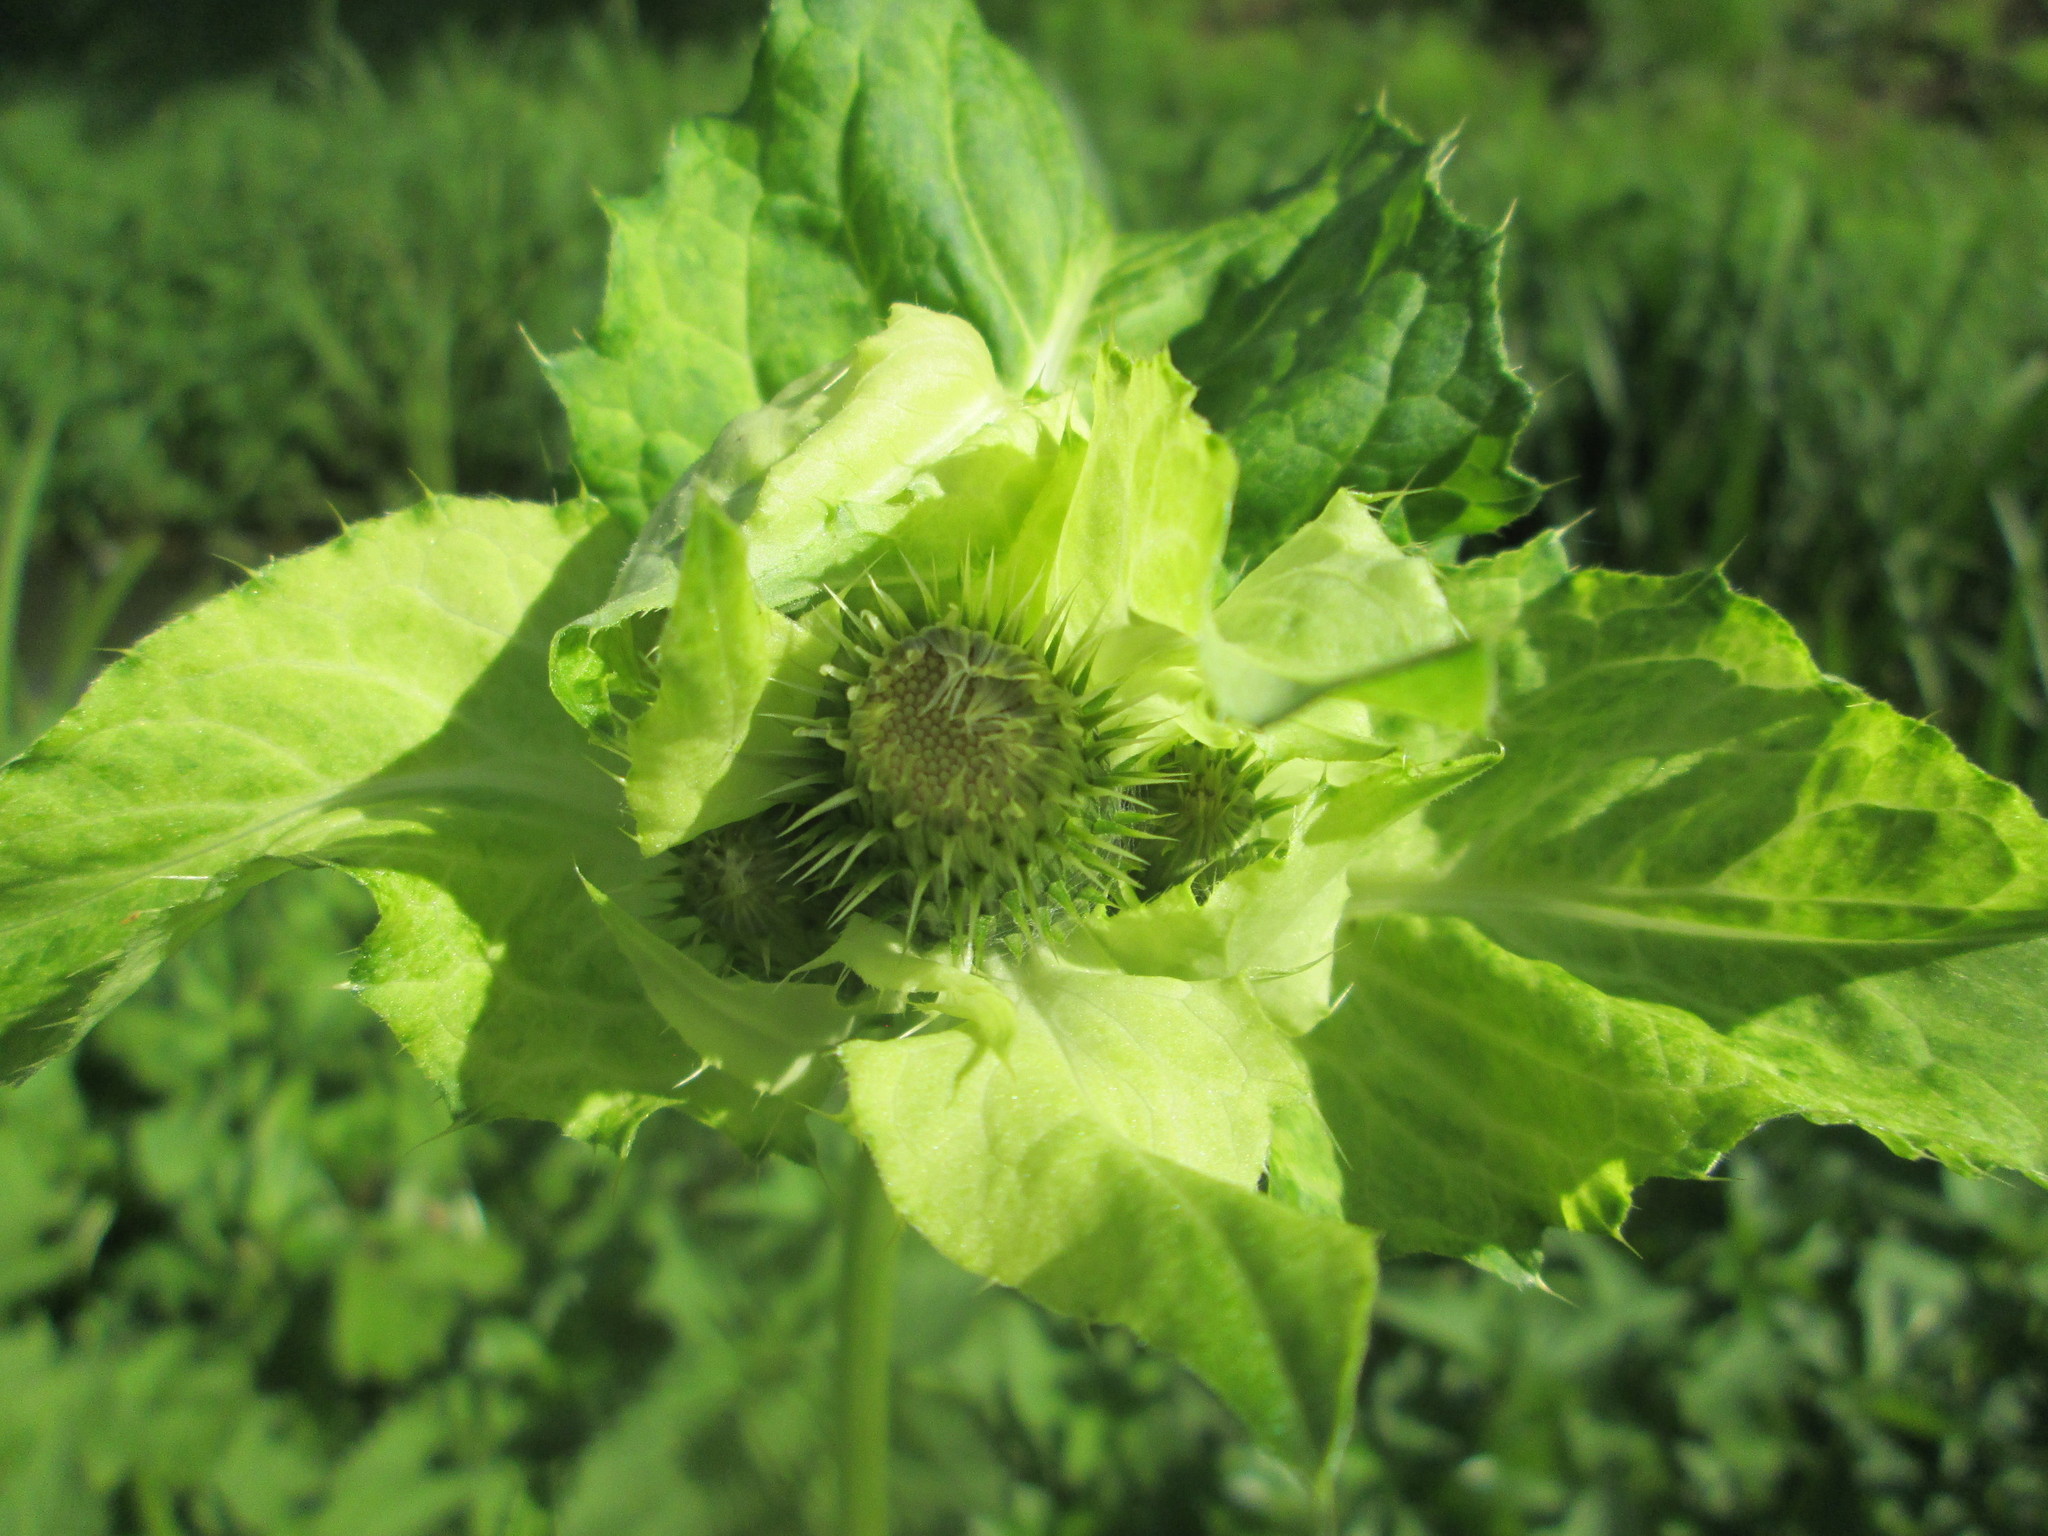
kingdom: Plantae
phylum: Tracheophyta
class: Magnoliopsida
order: Asterales
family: Asteraceae
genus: Cirsium
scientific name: Cirsium oleraceum
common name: Cabbage thistle
